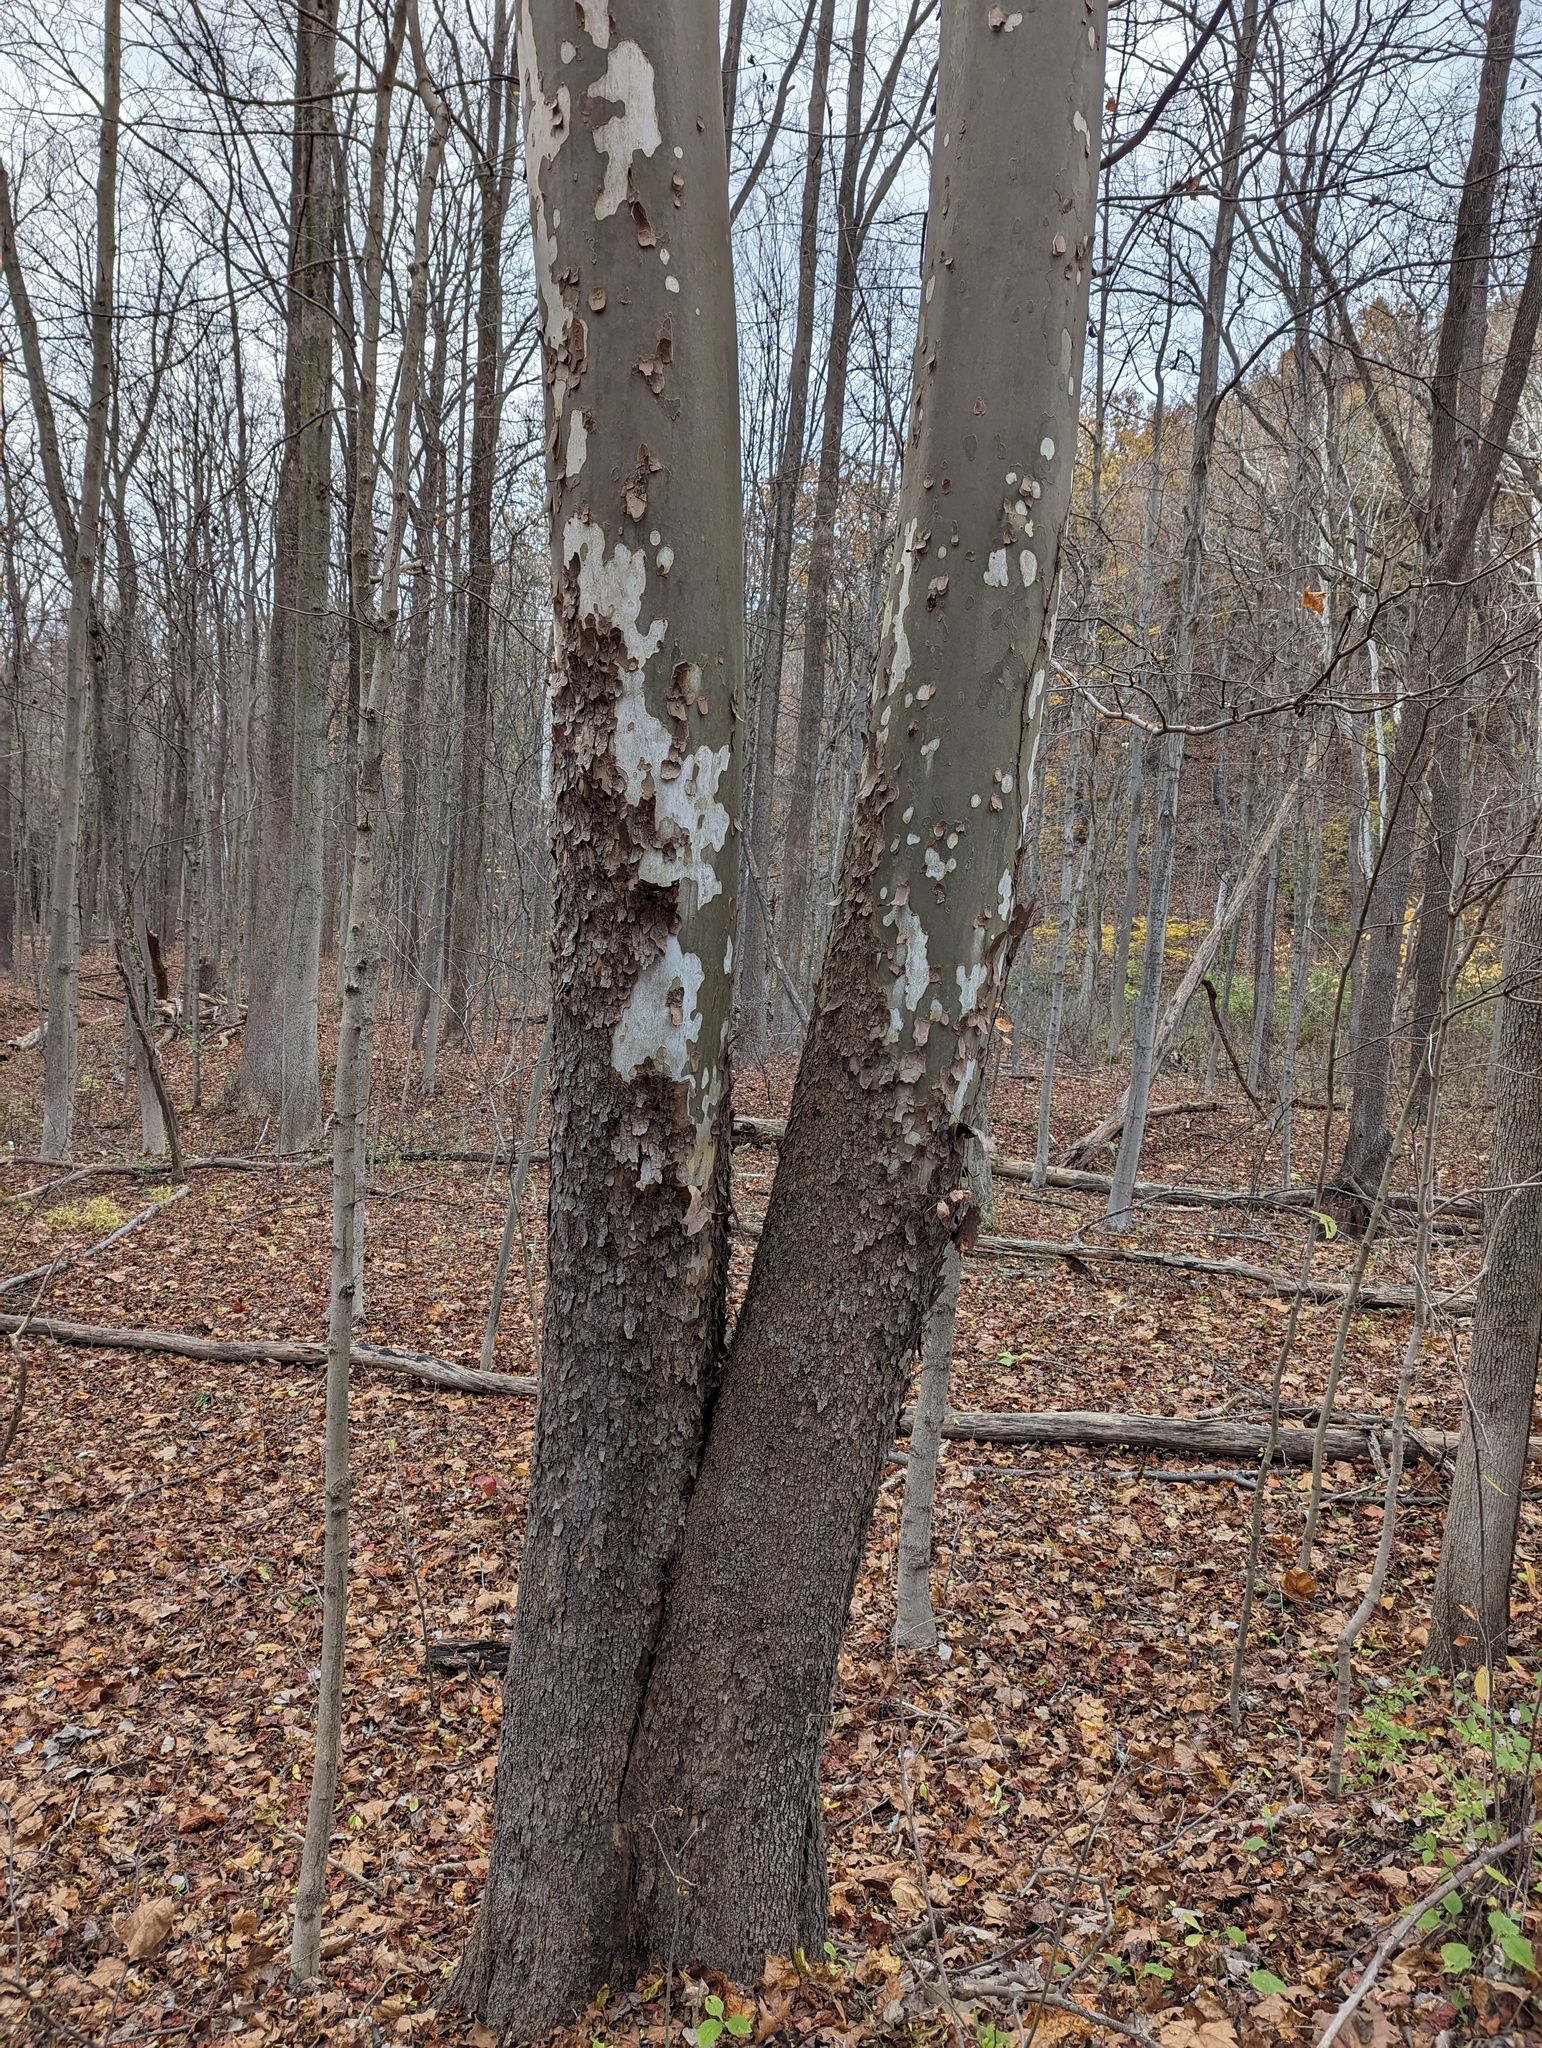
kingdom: Plantae
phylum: Tracheophyta
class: Magnoliopsida
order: Proteales
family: Platanaceae
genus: Platanus
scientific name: Platanus occidentalis
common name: American sycamore
